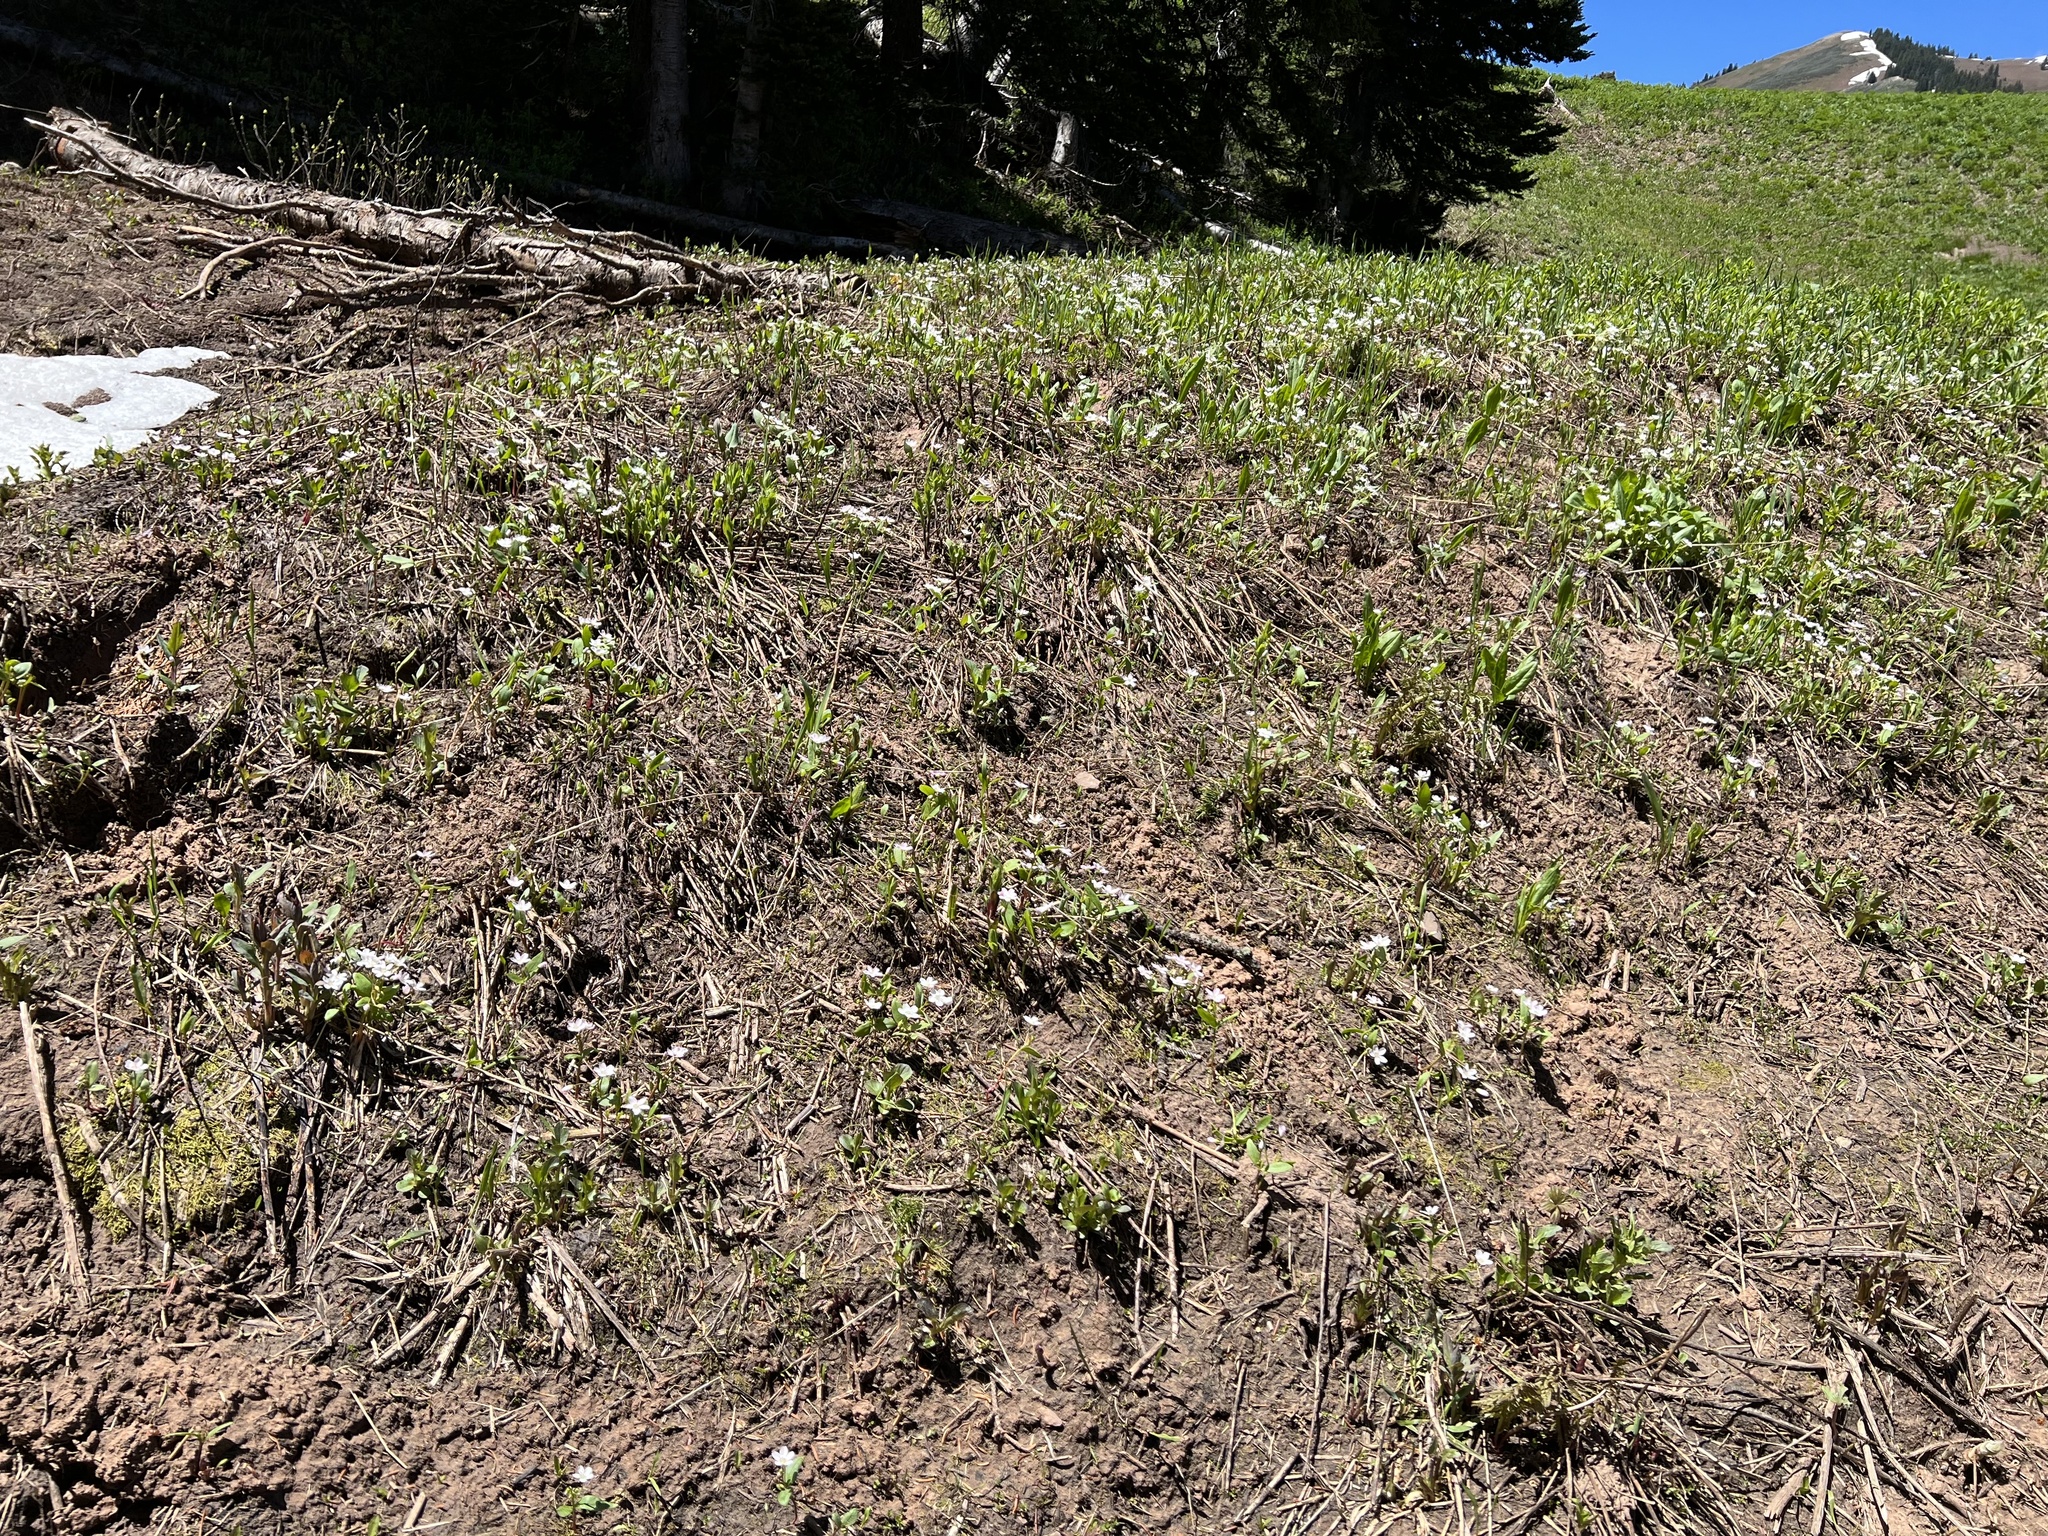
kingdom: Plantae
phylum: Tracheophyta
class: Magnoliopsida
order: Caryophyllales
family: Montiaceae
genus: Claytonia
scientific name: Claytonia lanceolata
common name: Western spring-beauty
